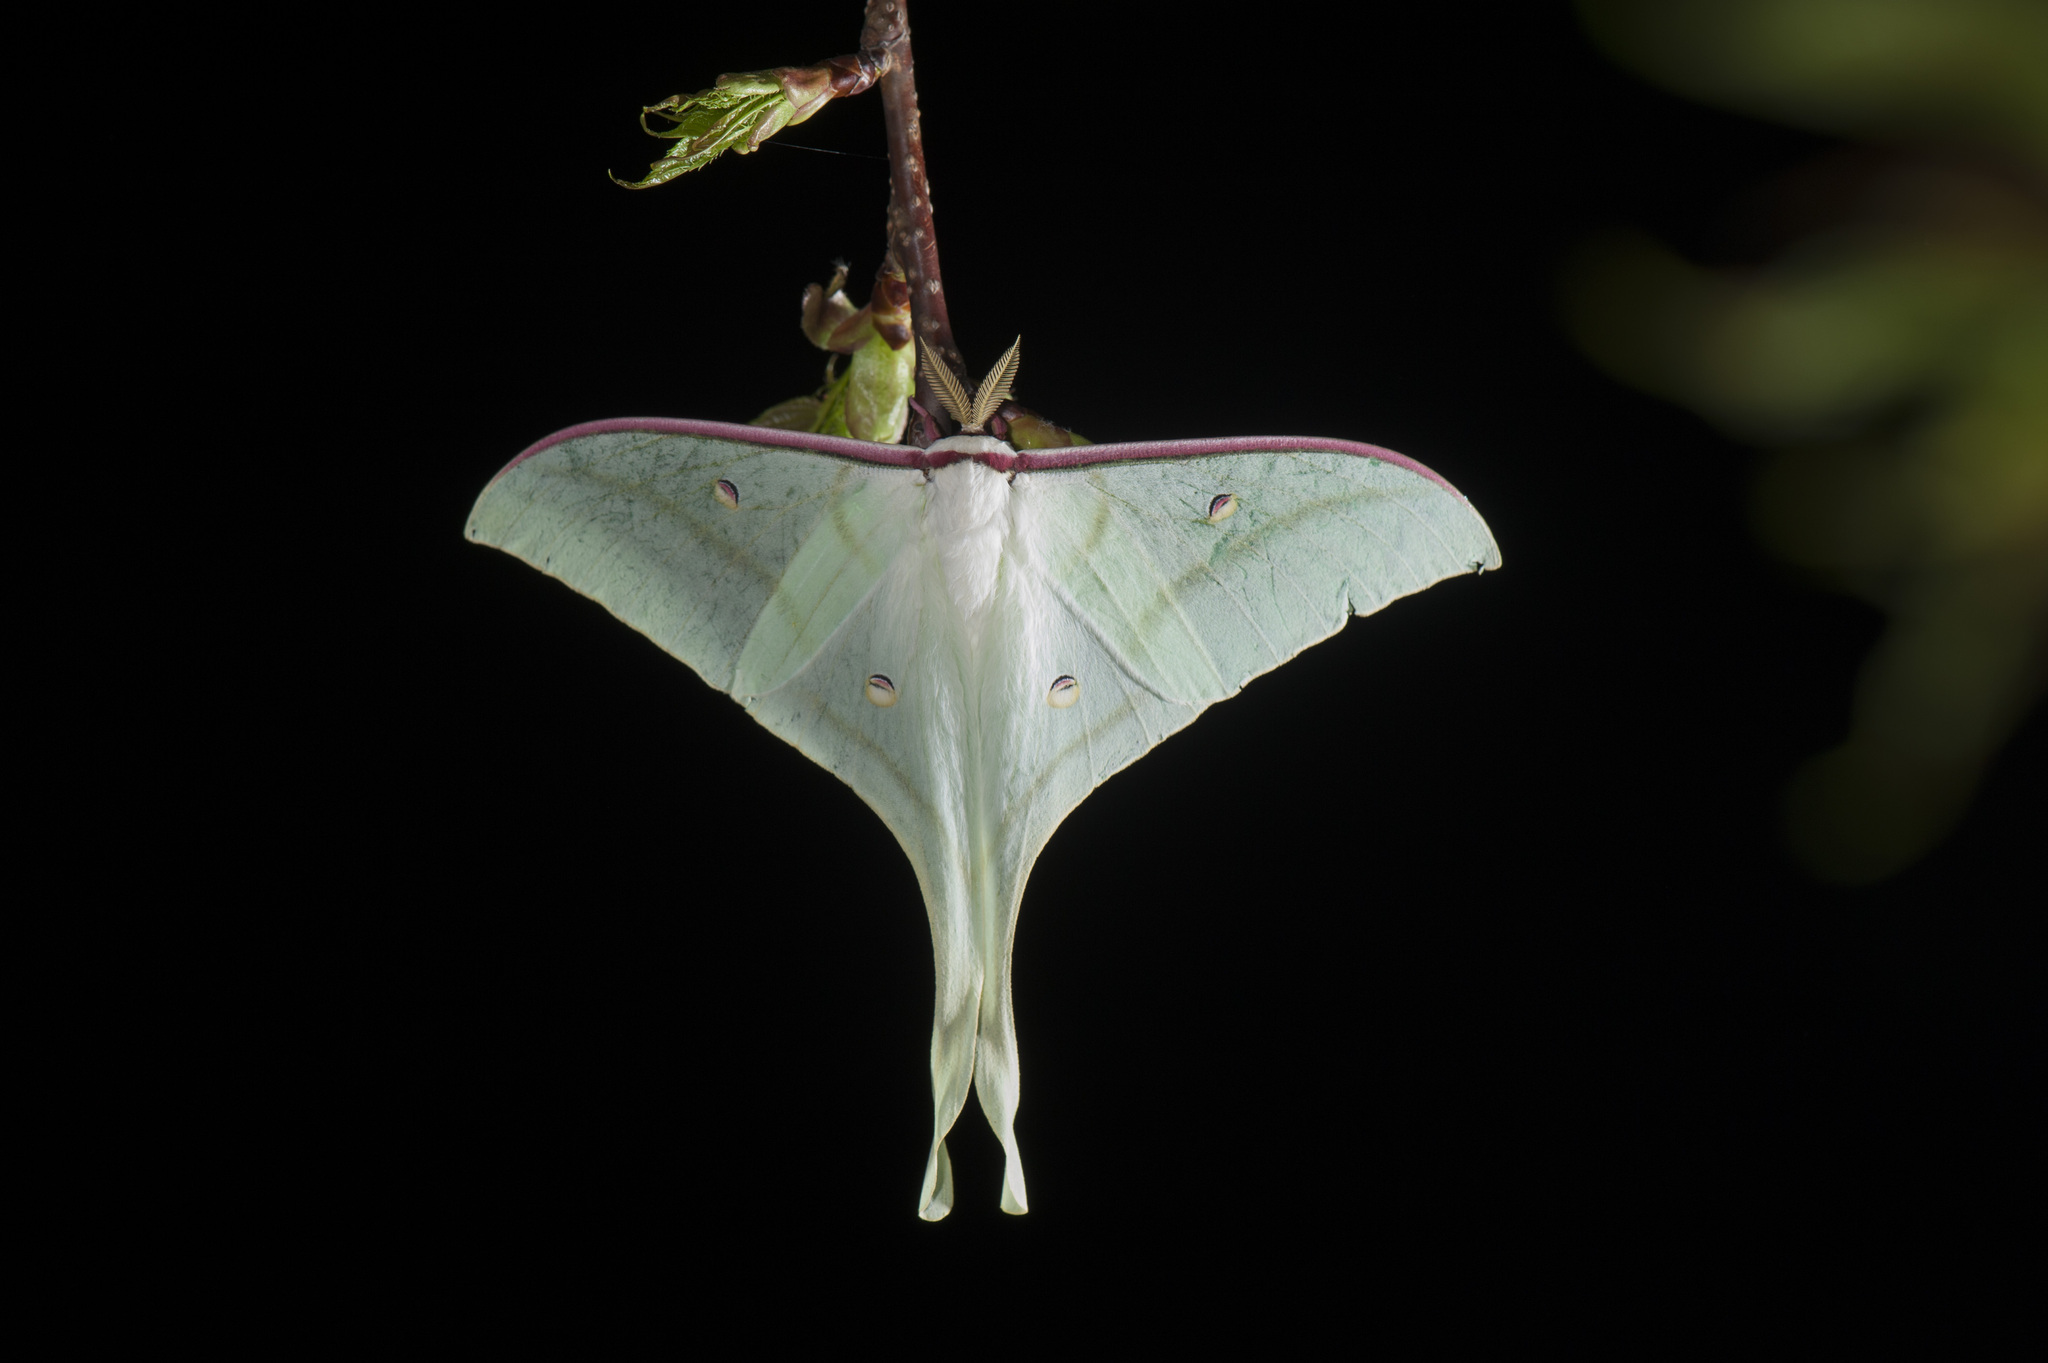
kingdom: Animalia
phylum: Arthropoda
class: Insecta
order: Lepidoptera
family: Saturniidae
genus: Actias
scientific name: Actias ningpoana
